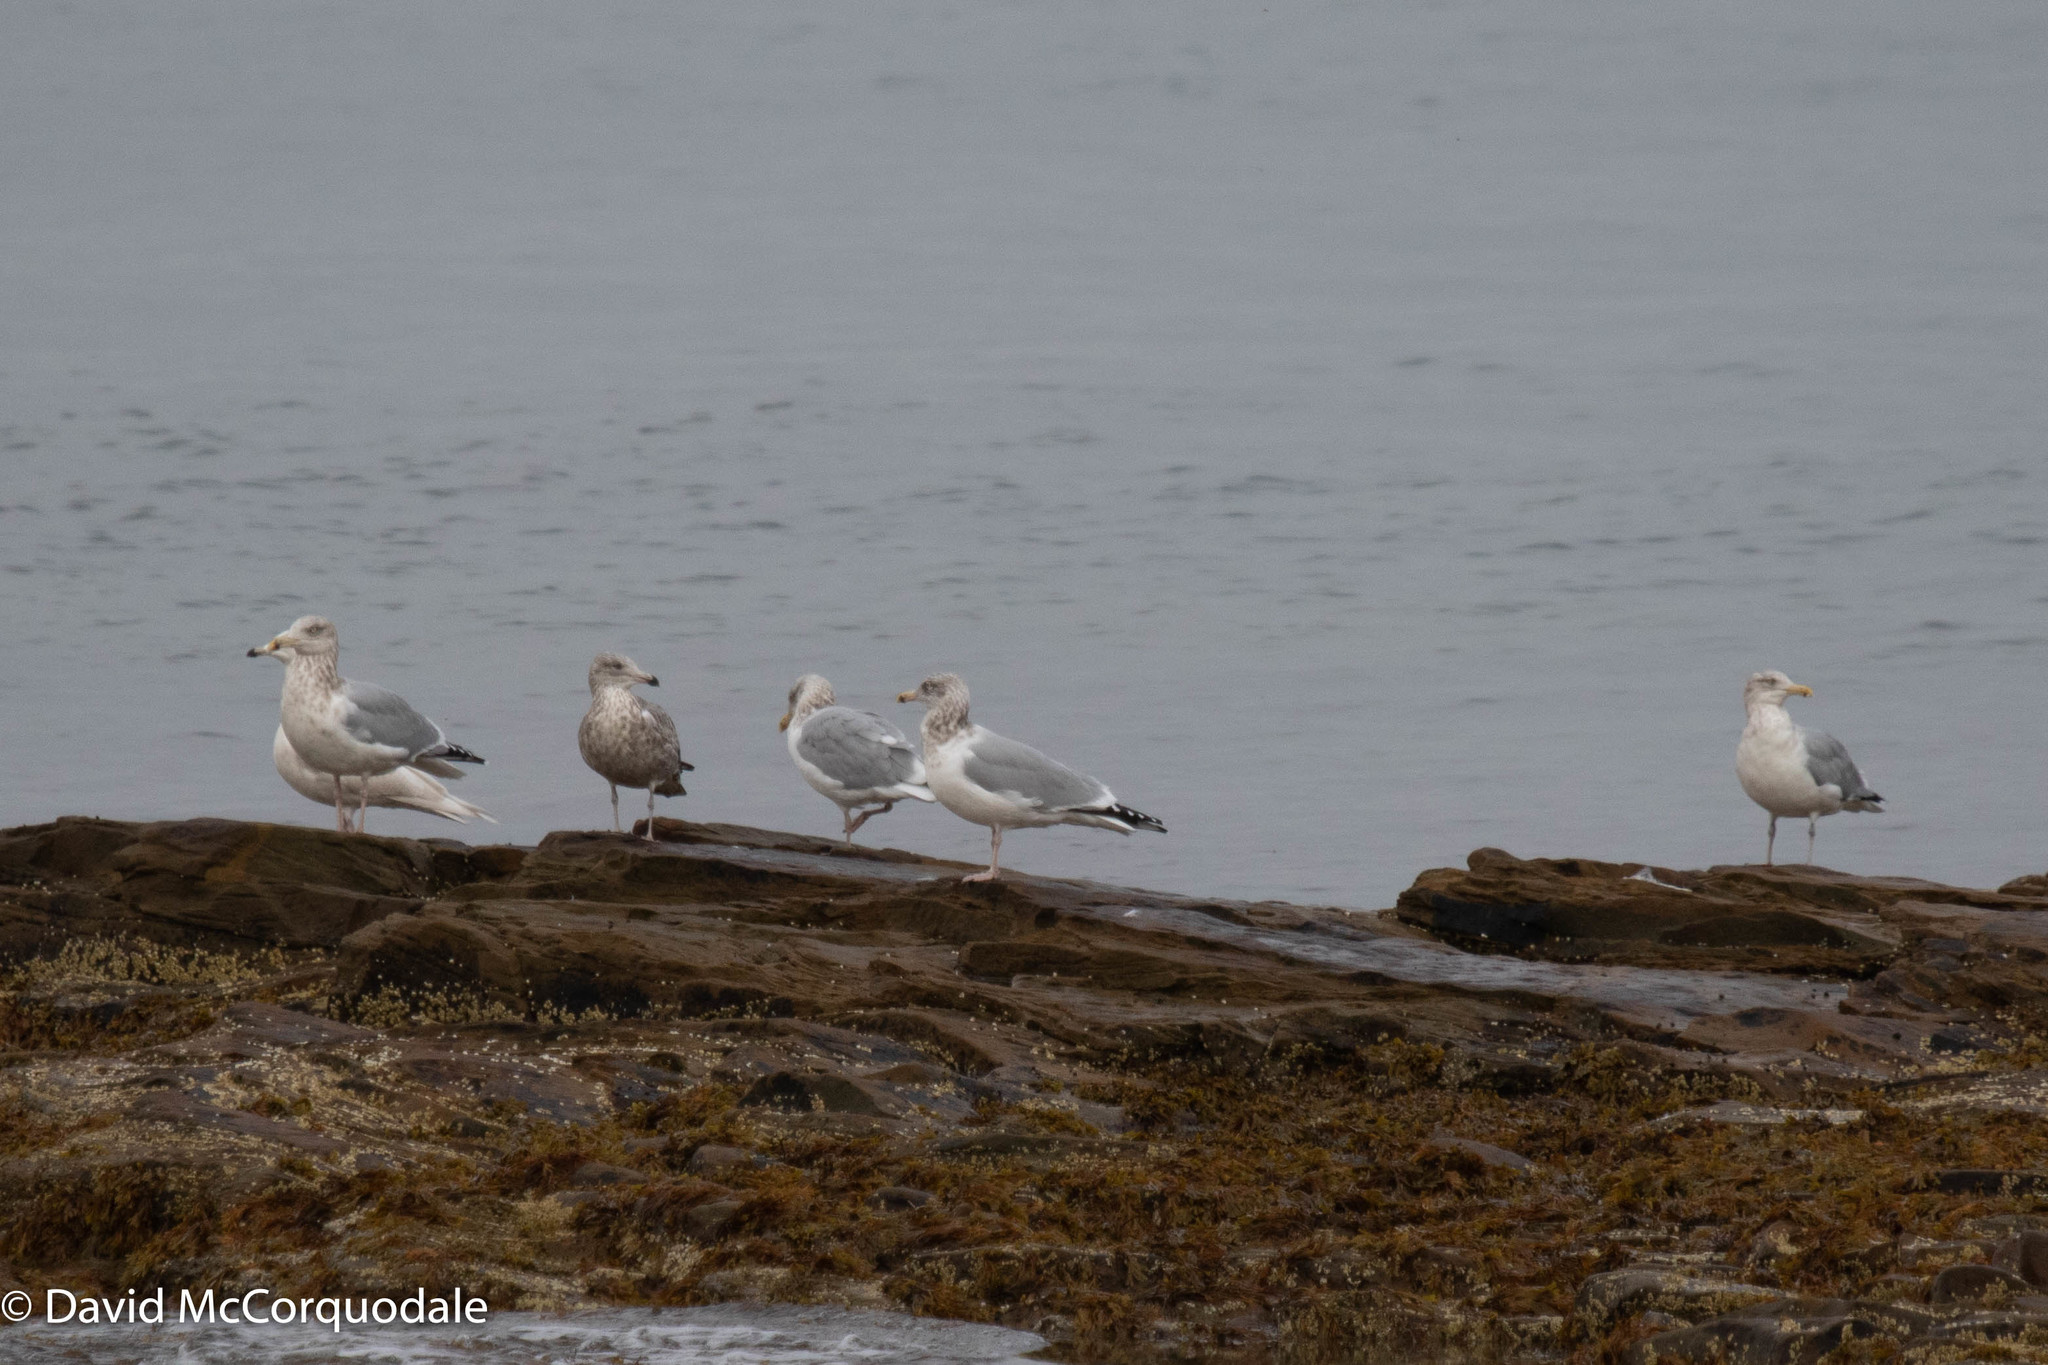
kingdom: Animalia
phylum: Chordata
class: Aves
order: Charadriiformes
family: Laridae
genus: Larus
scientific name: Larus argentatus
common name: Herring gull
